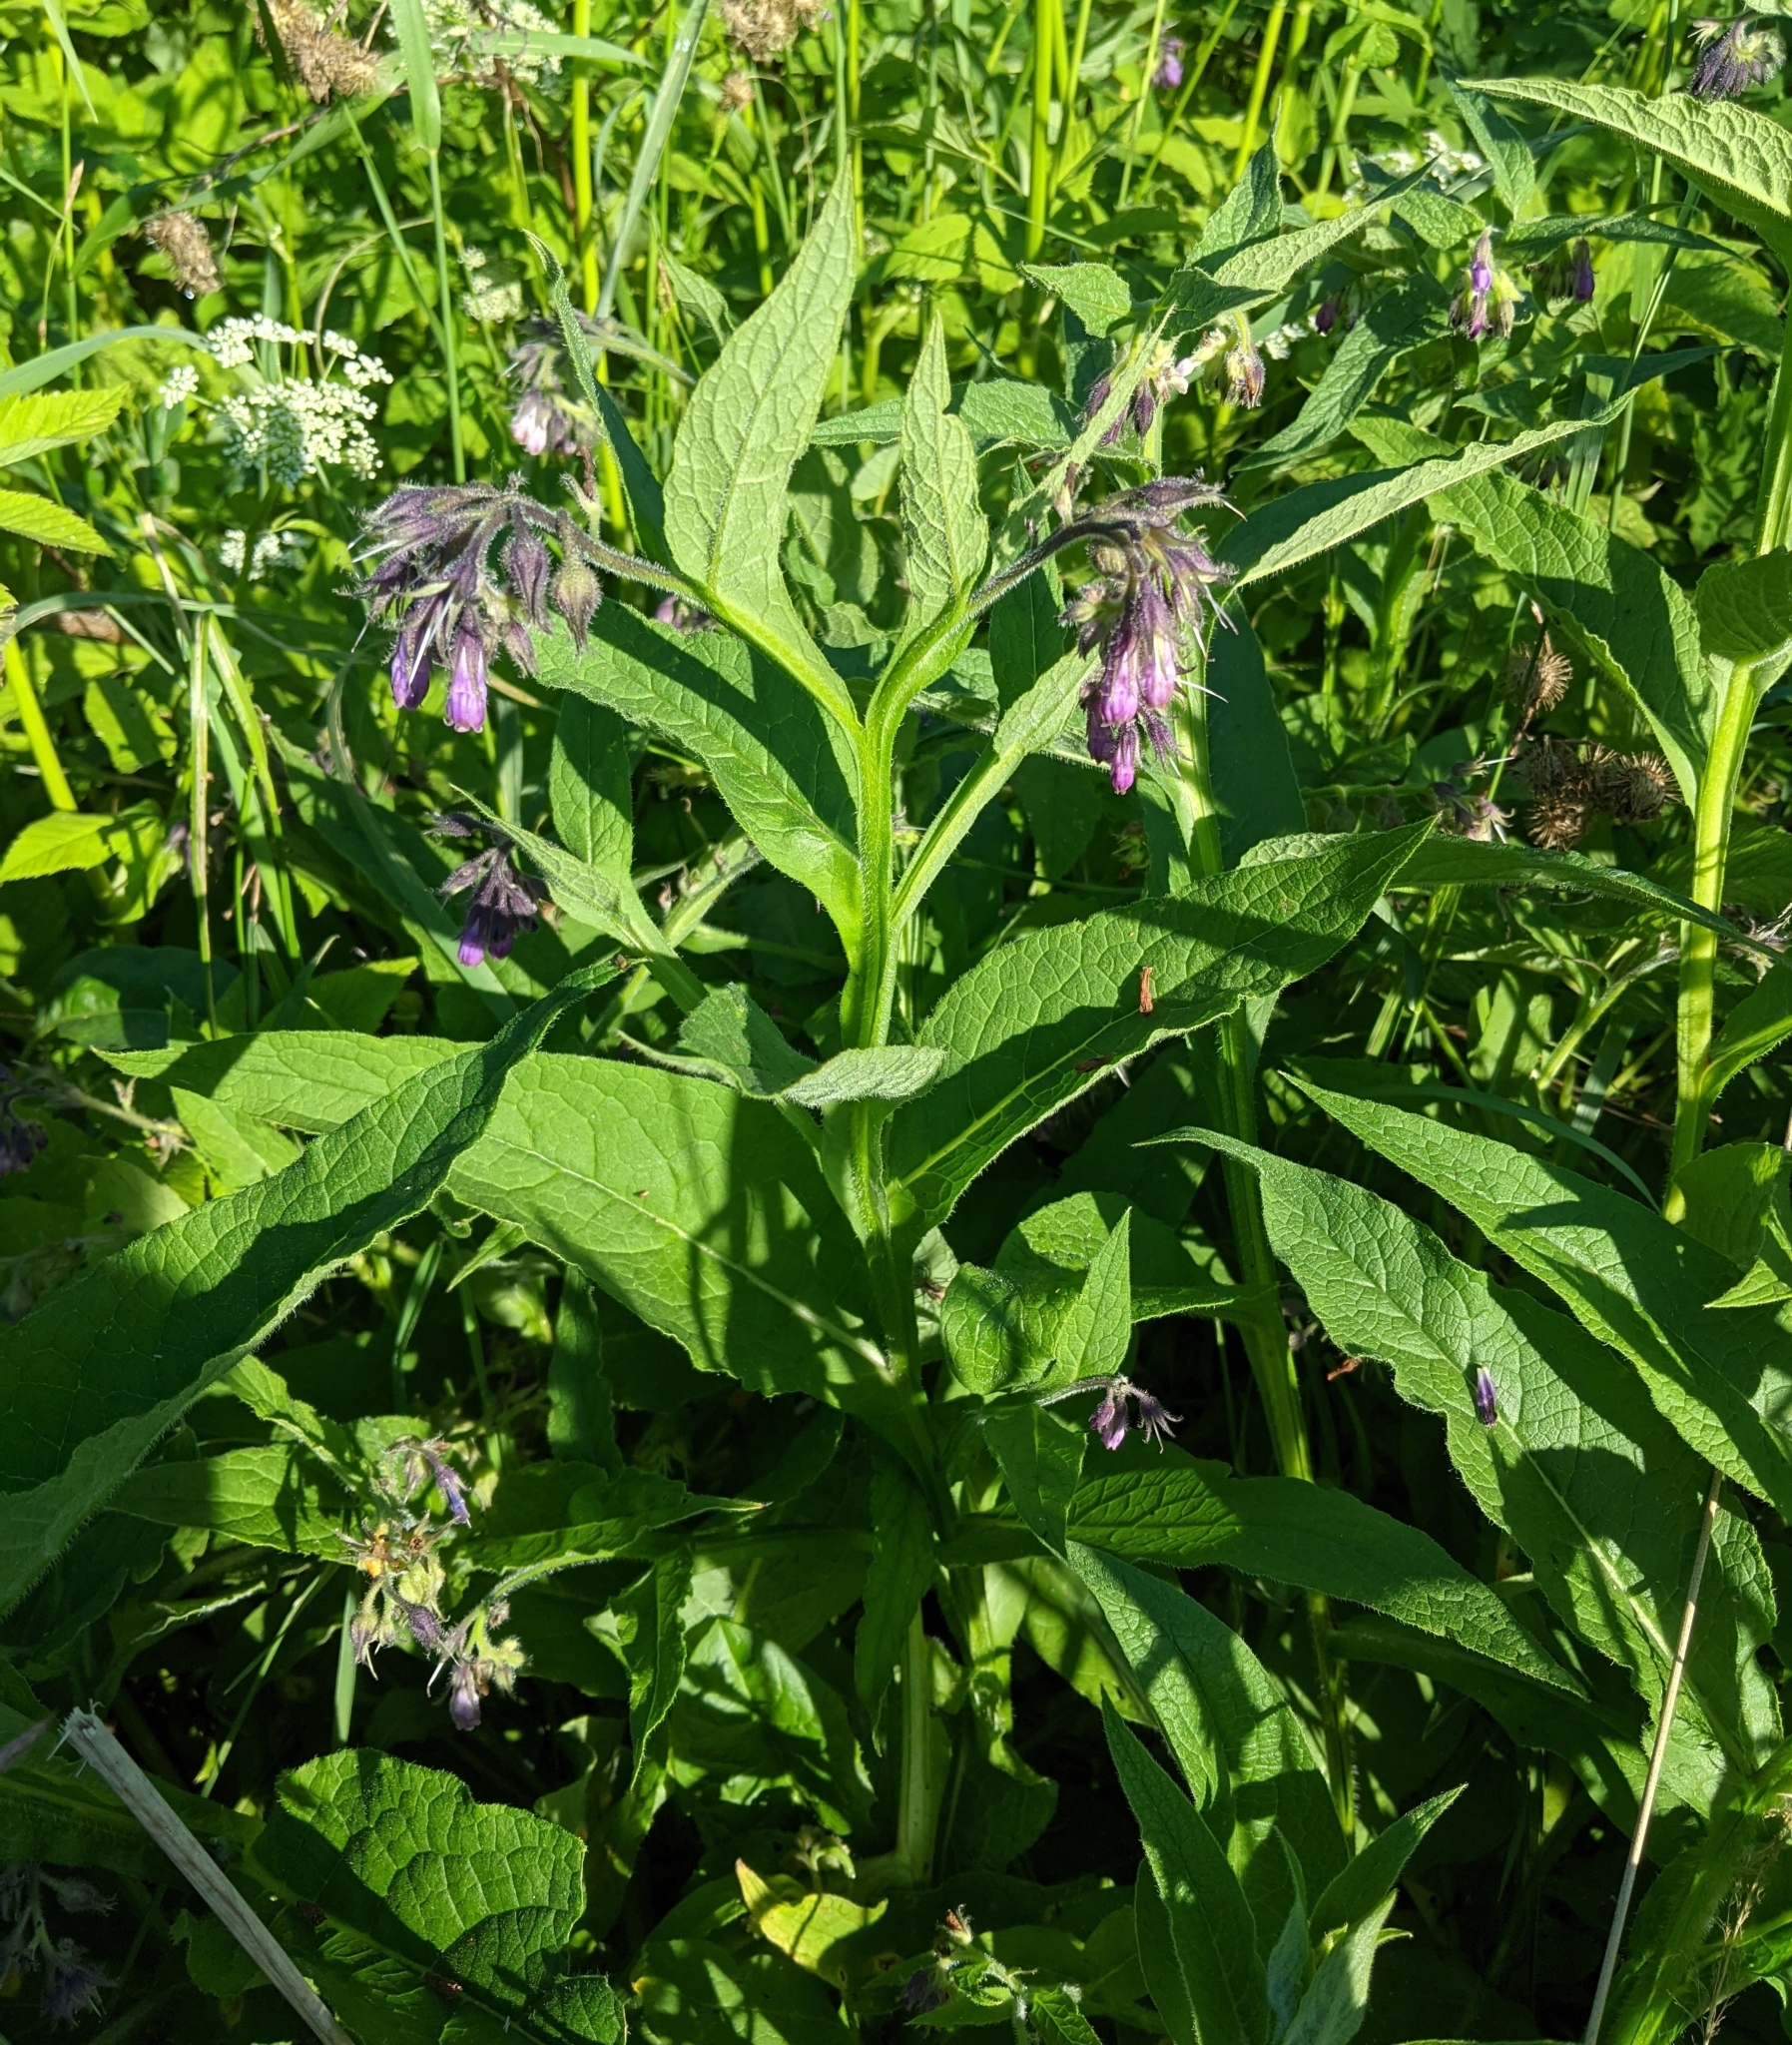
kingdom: Plantae
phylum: Tracheophyta
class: Magnoliopsida
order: Boraginales
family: Boraginaceae
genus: Symphytum
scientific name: Symphytum officinale
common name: Common comfrey
